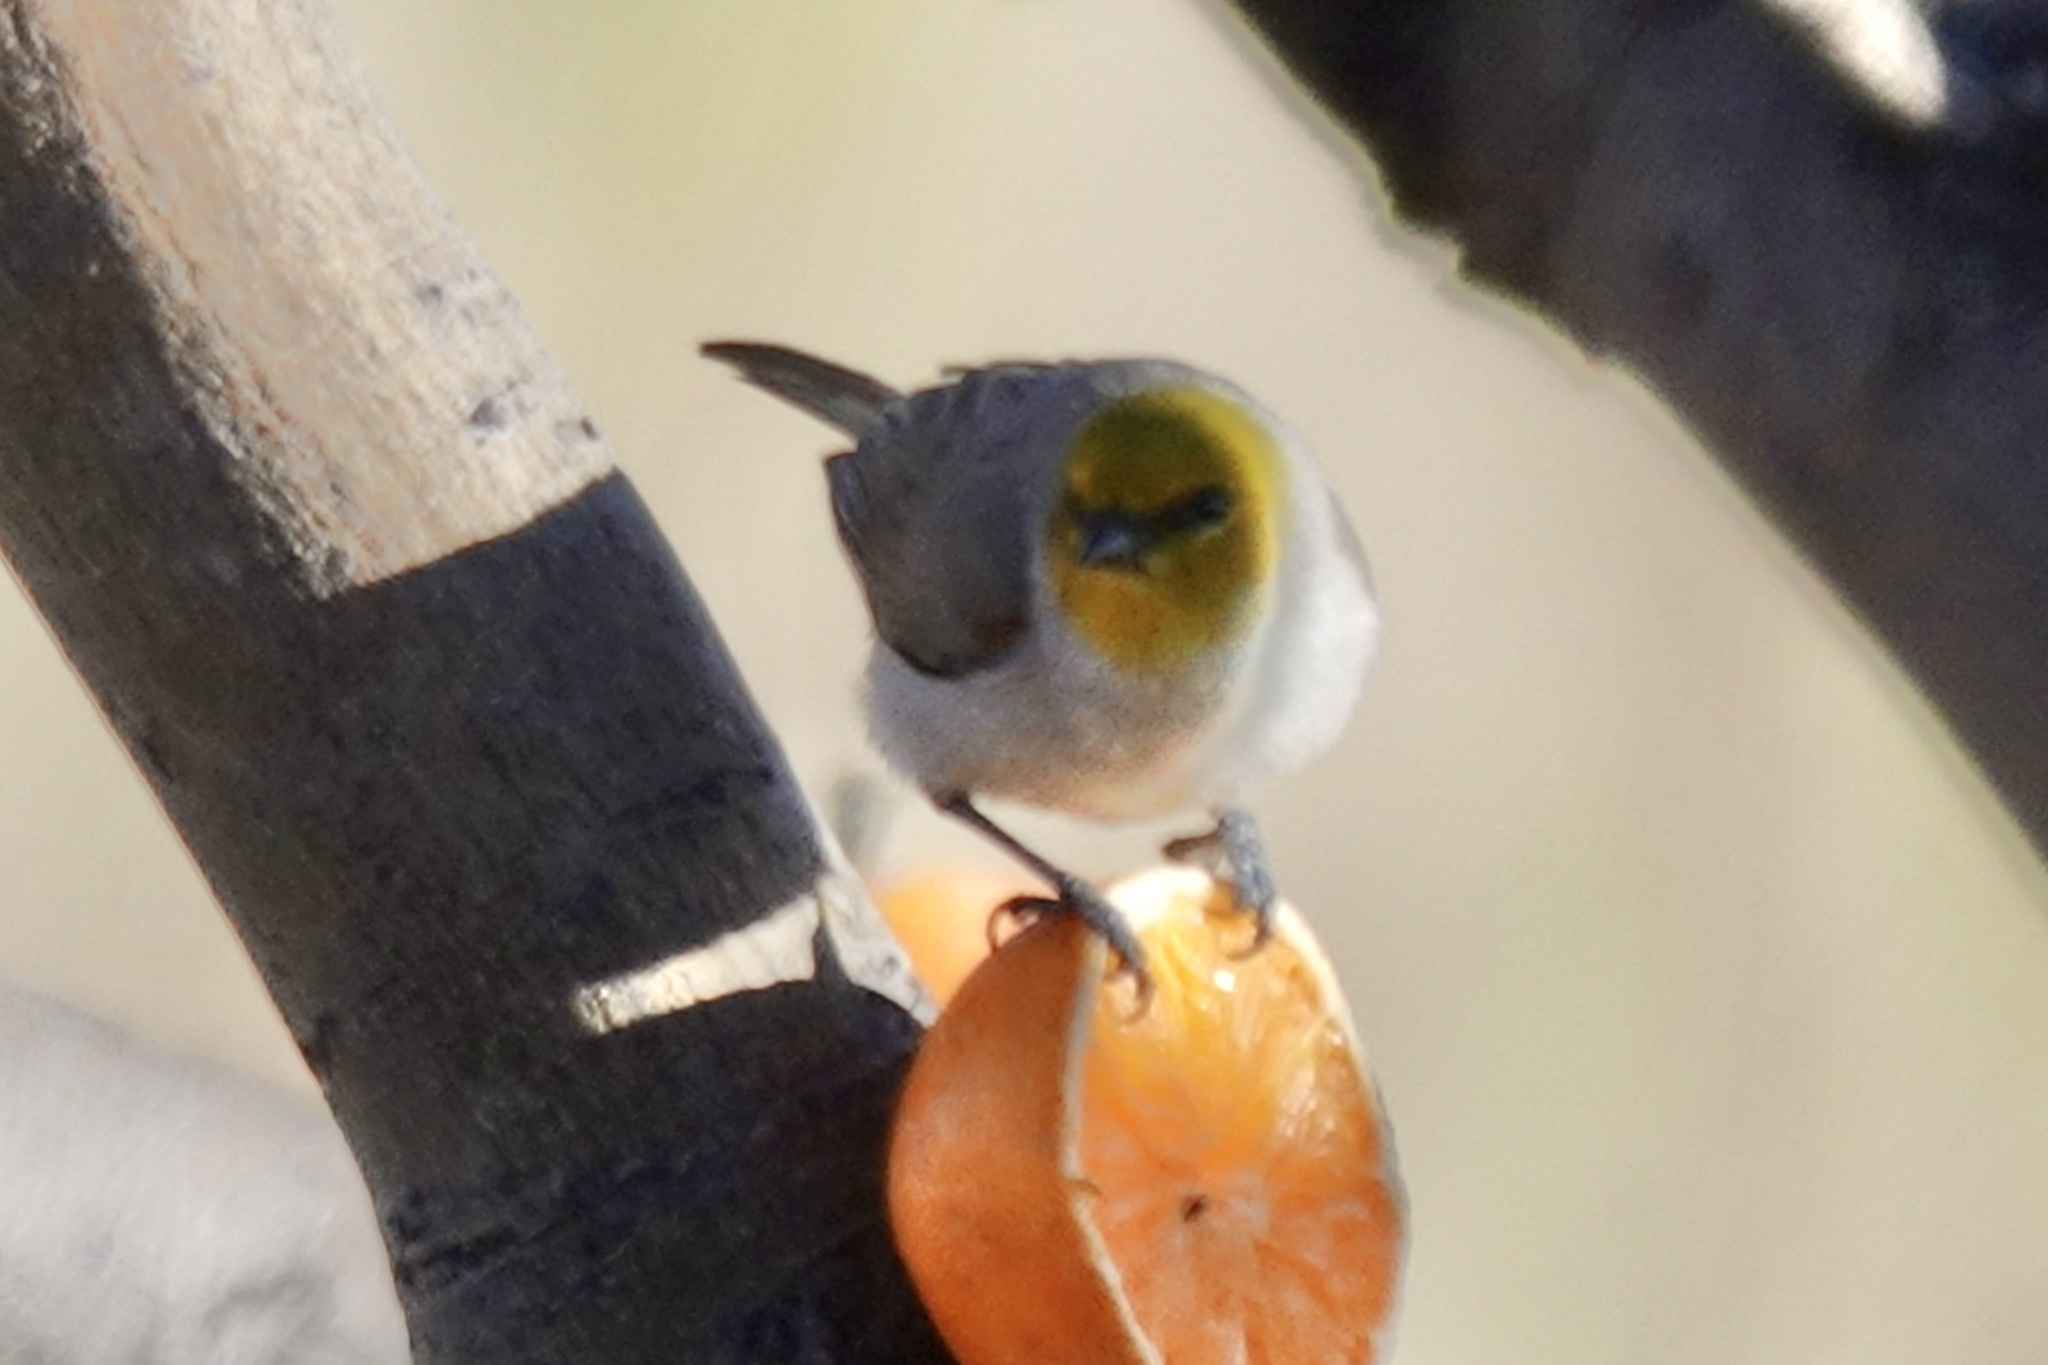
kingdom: Animalia
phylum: Chordata
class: Aves
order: Passeriformes
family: Remizidae
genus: Auriparus
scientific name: Auriparus flaviceps
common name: Verdin
